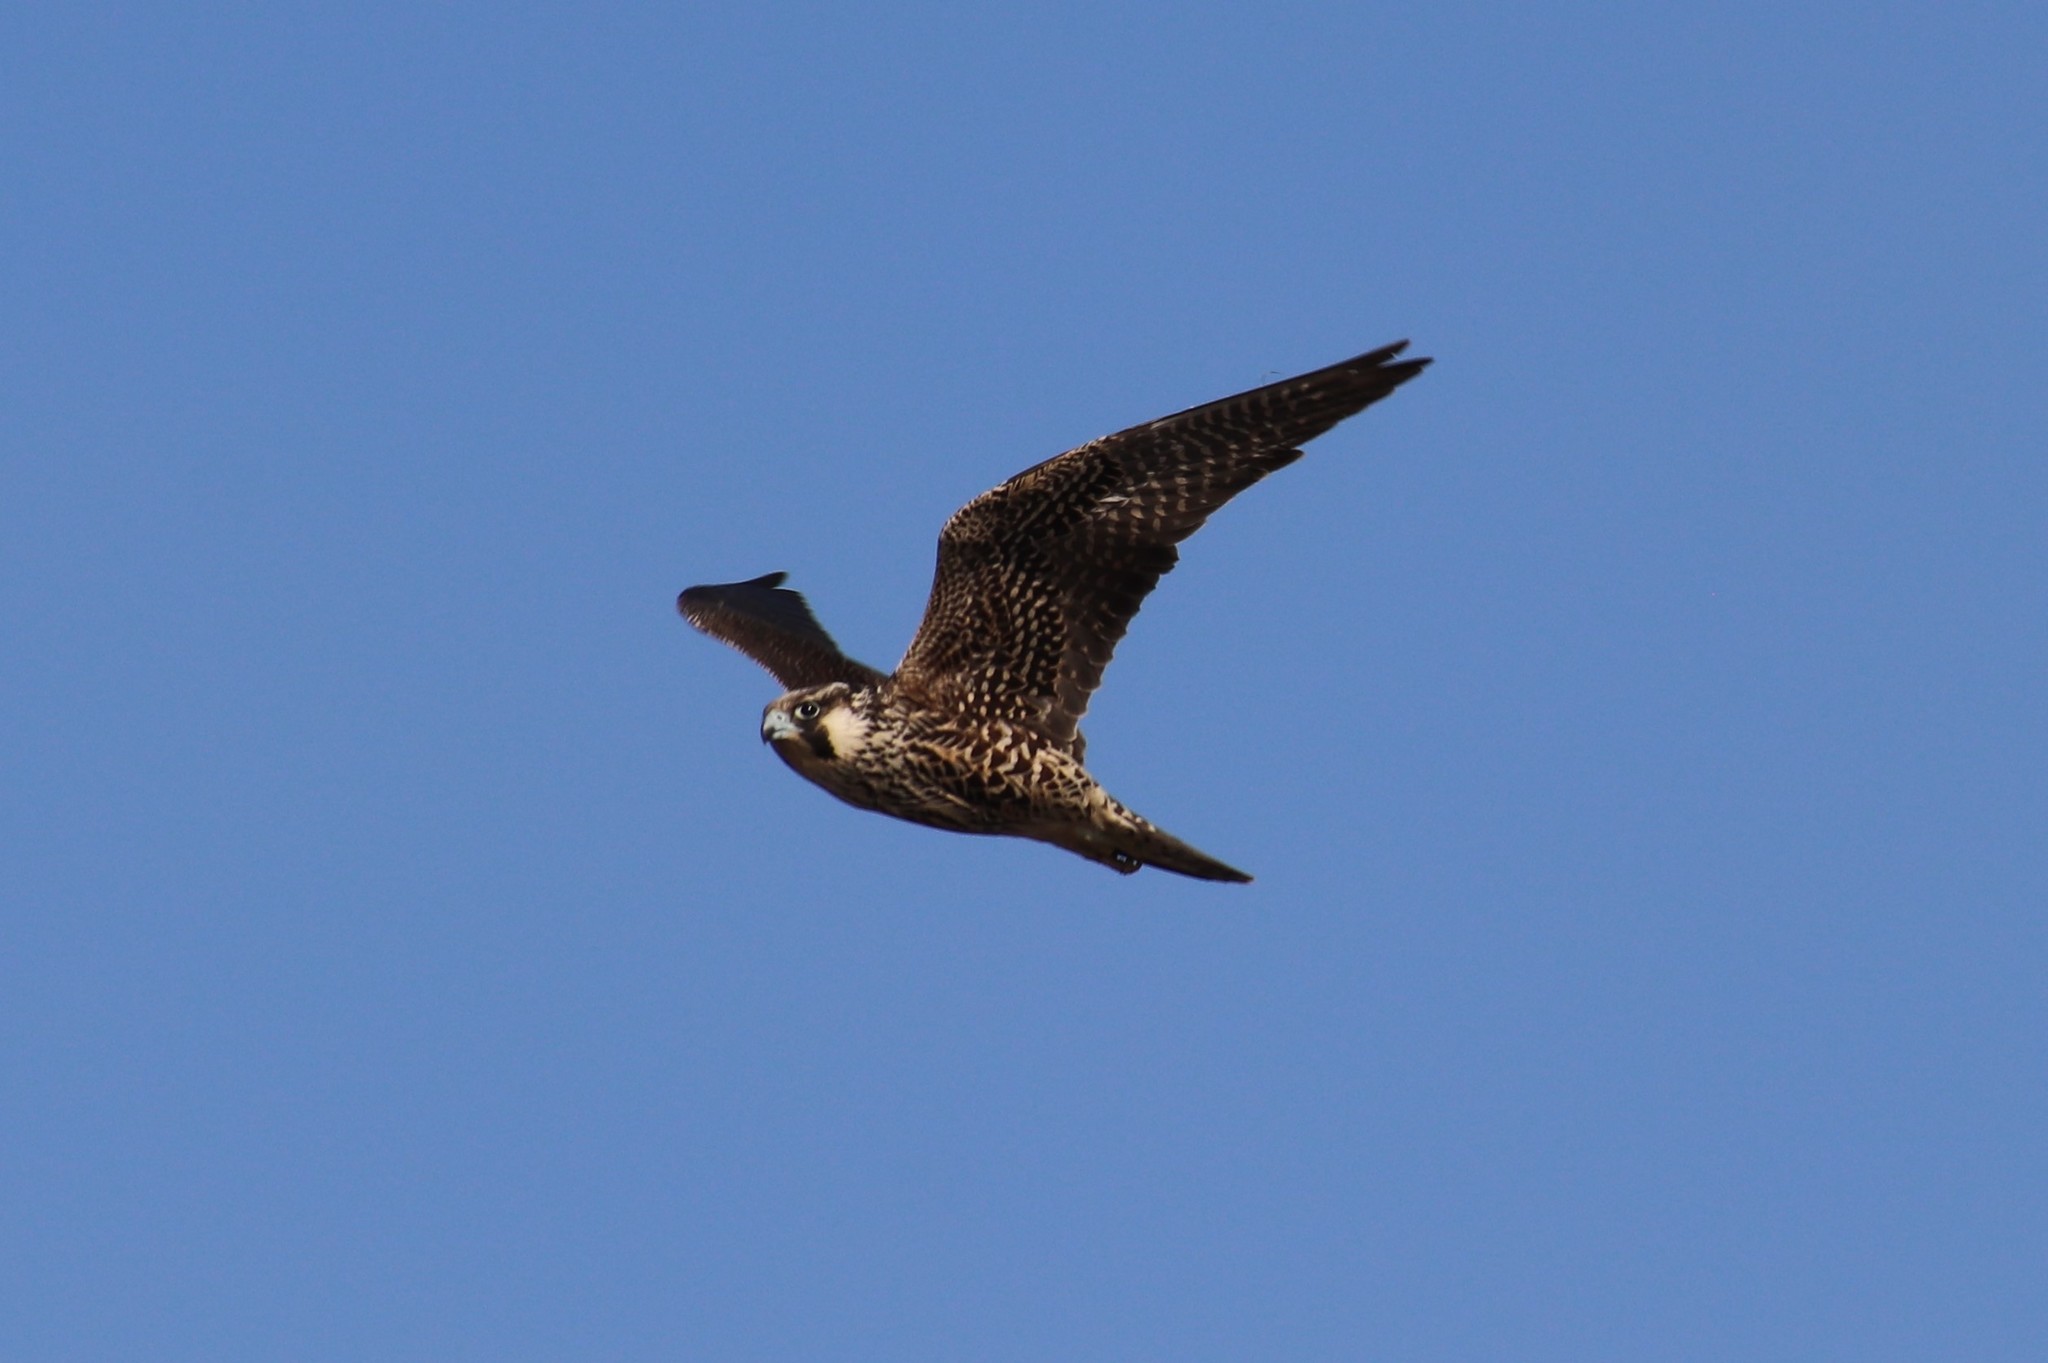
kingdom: Animalia
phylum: Chordata
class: Aves
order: Falconiformes
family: Falconidae
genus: Falco
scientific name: Falco peregrinus
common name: Peregrine falcon
